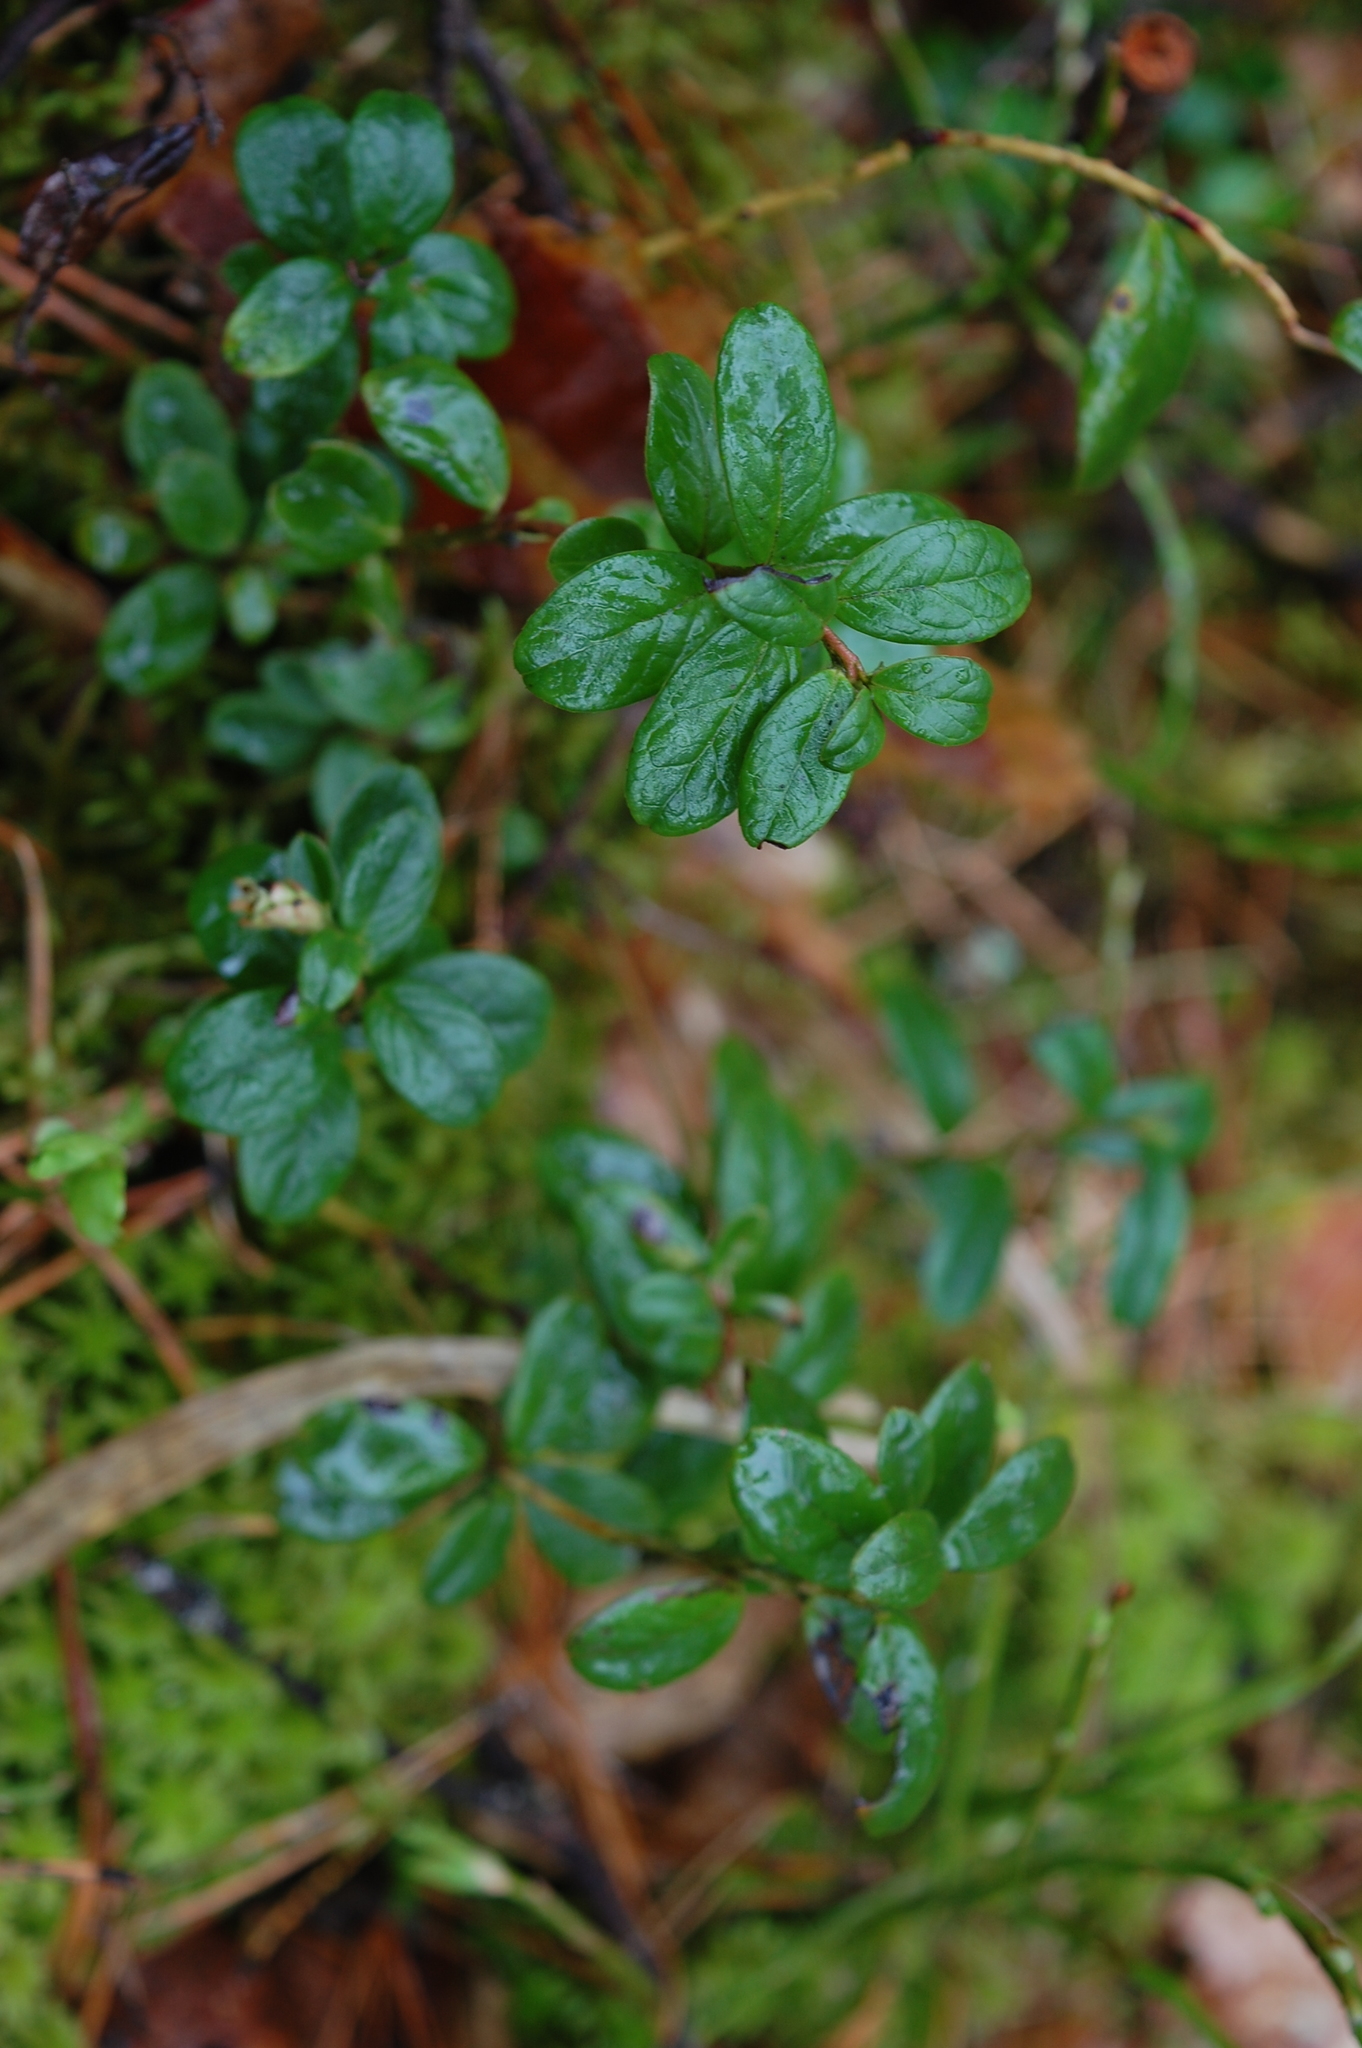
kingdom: Plantae
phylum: Tracheophyta
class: Magnoliopsida
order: Ericales
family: Ericaceae
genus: Vaccinium
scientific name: Vaccinium vitis-idaea
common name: Cowberry
